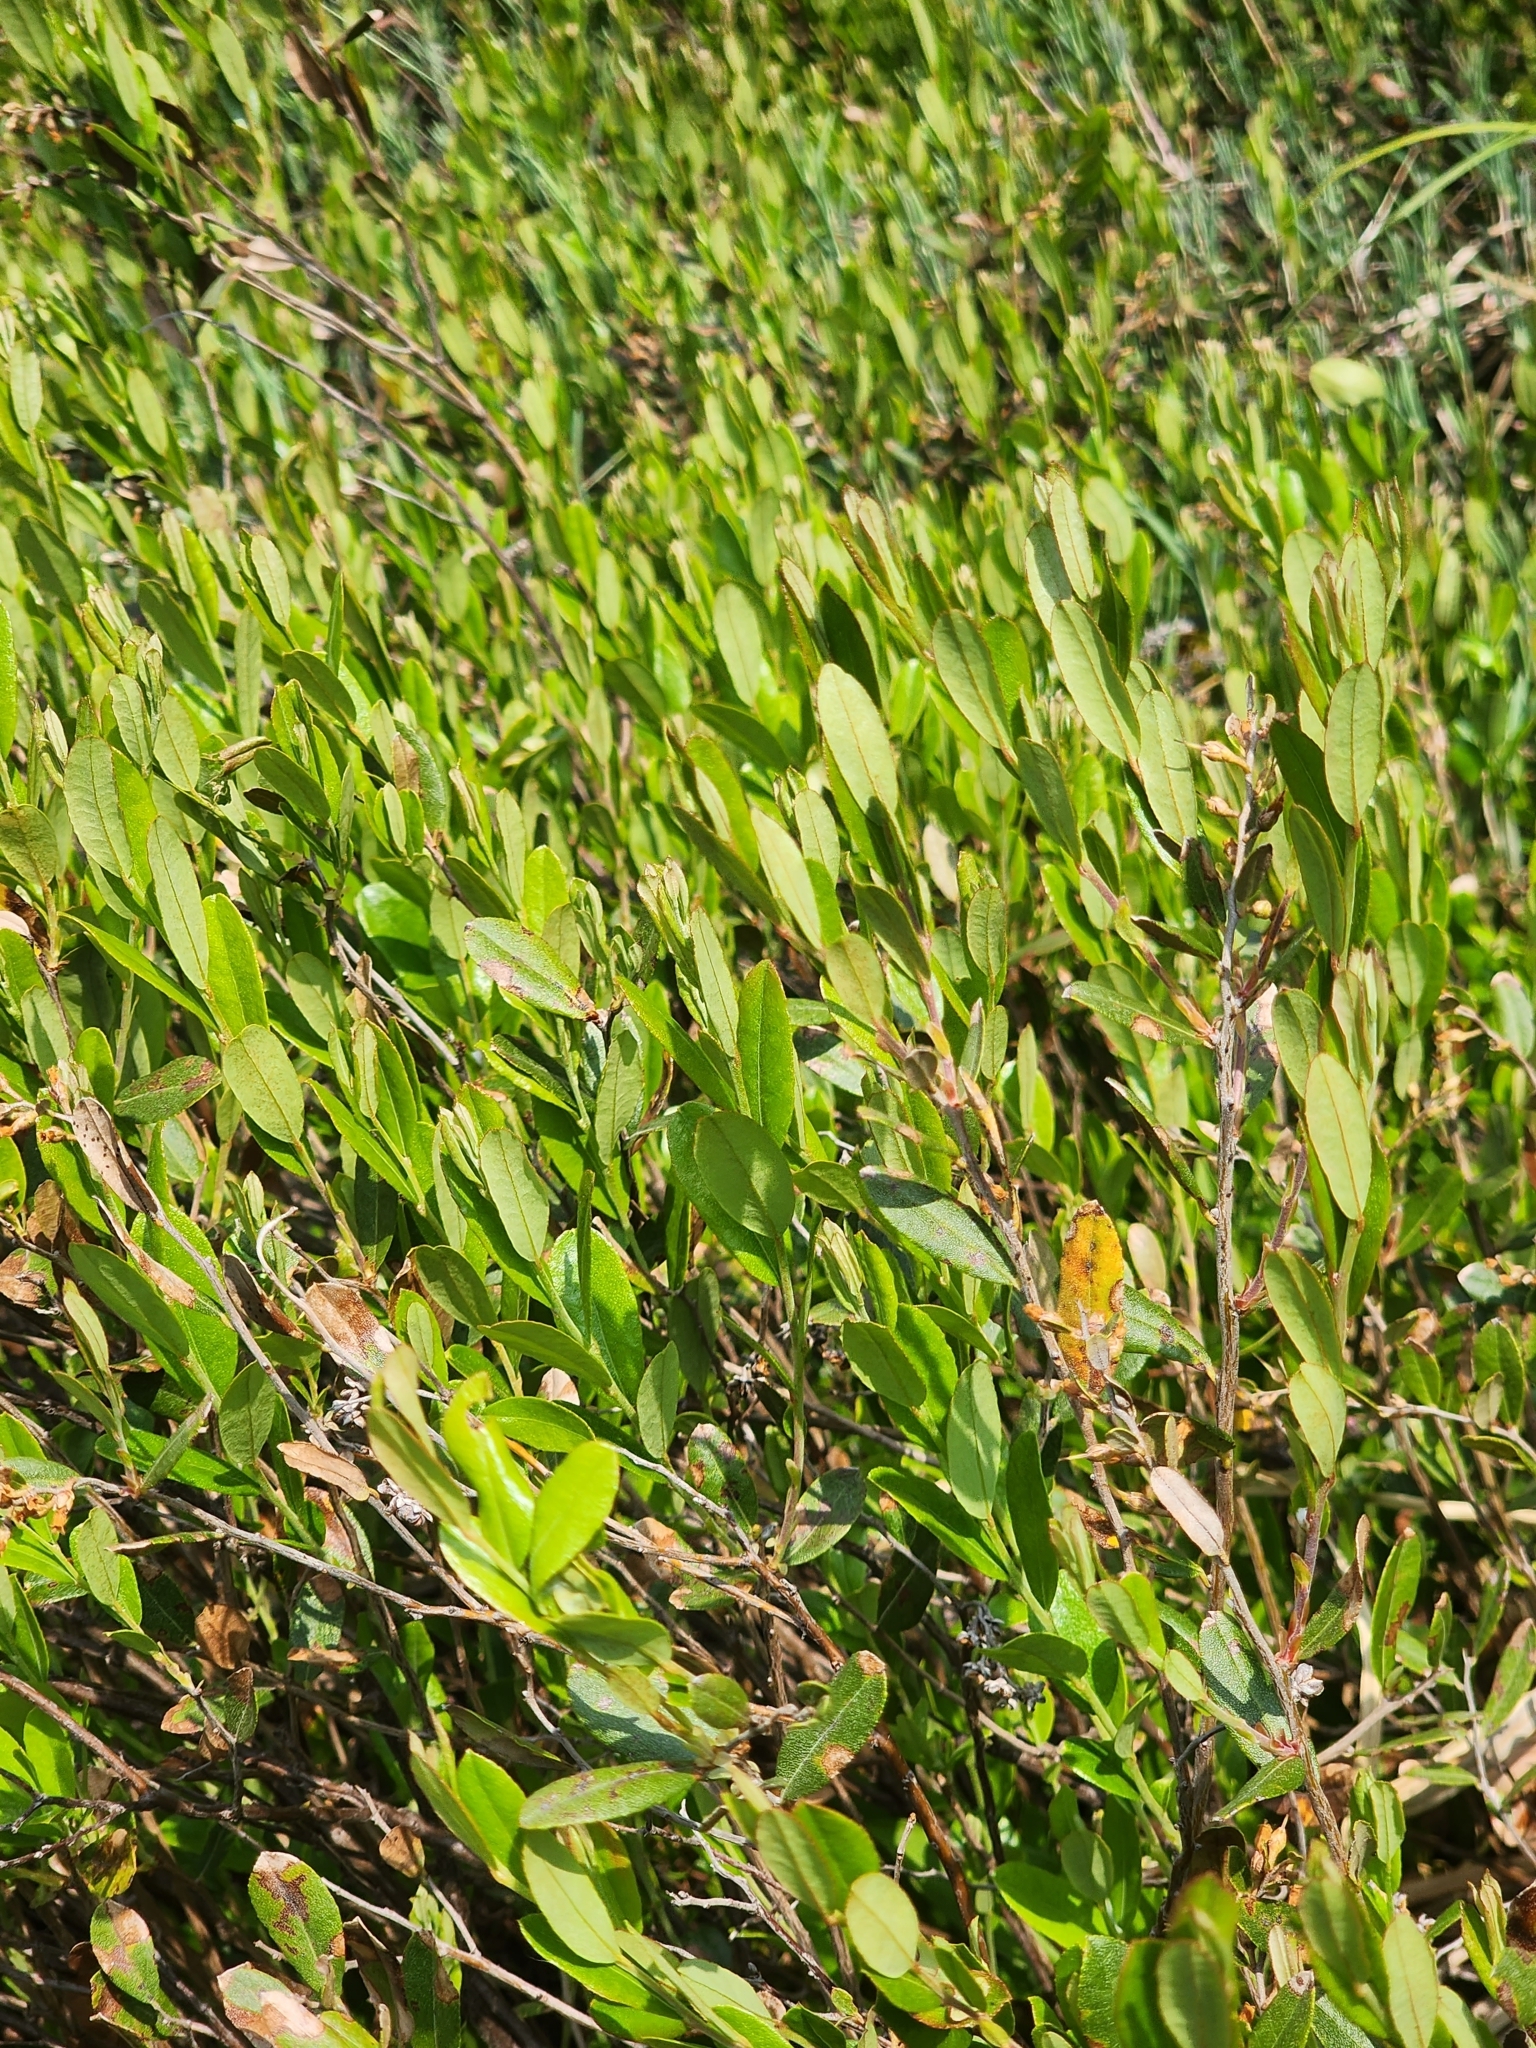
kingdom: Plantae
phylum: Tracheophyta
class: Magnoliopsida
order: Ericales
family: Ericaceae
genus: Chamaedaphne
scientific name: Chamaedaphne calyculata
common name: Leatherleaf
